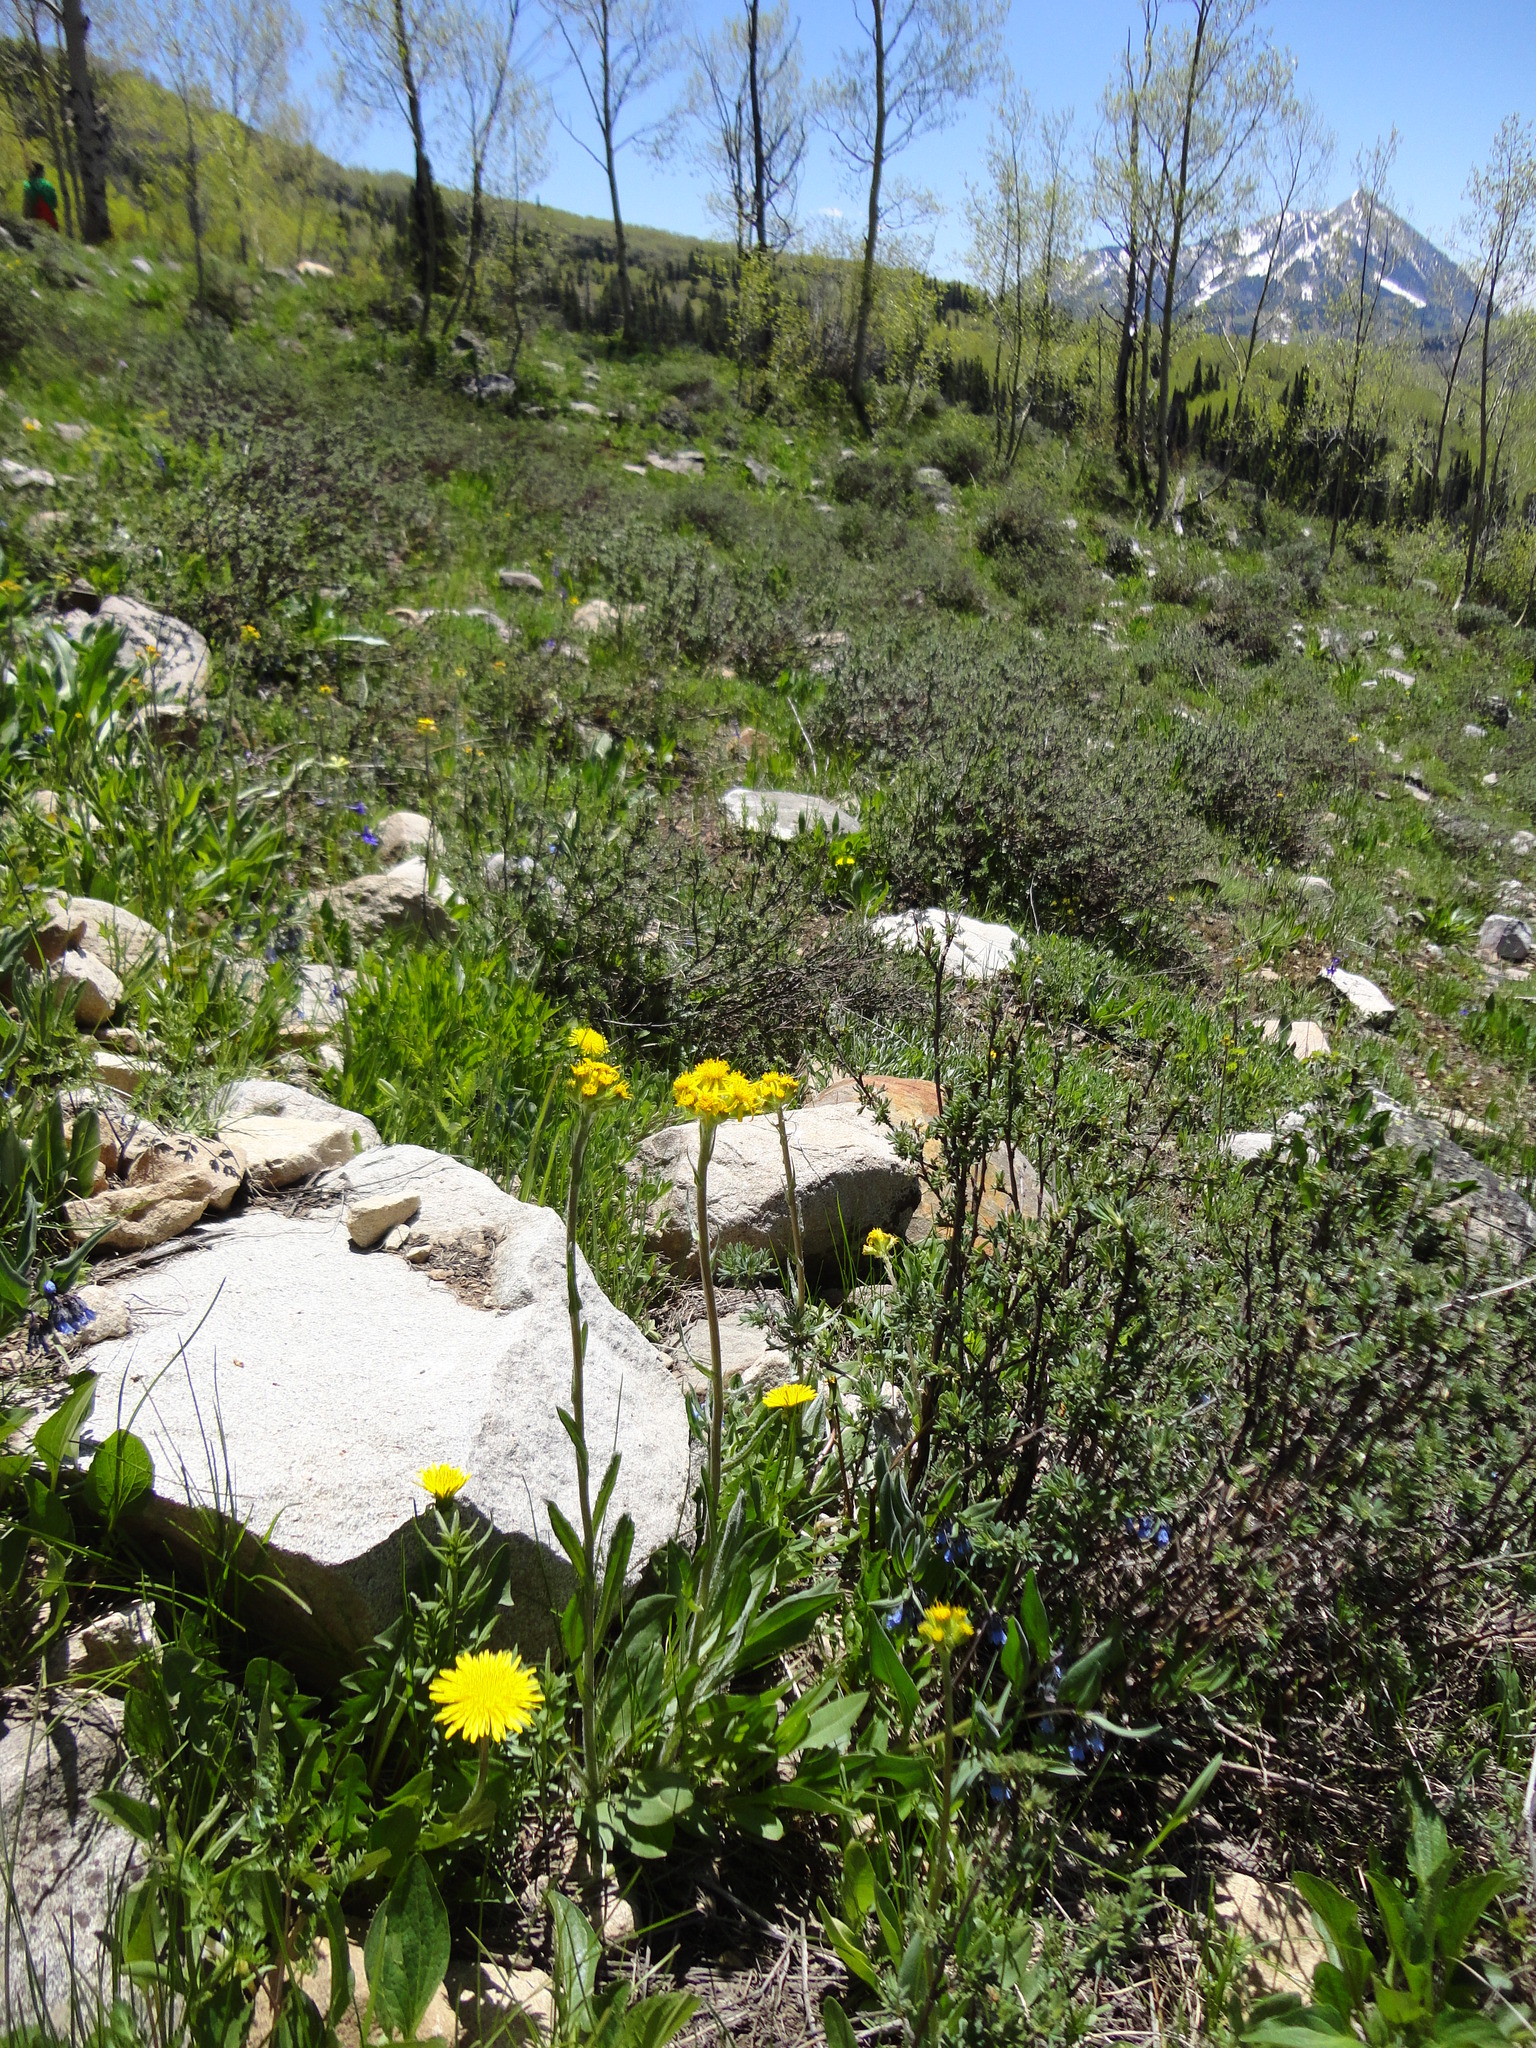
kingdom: Plantae
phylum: Tracheophyta
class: Magnoliopsida
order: Asterales
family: Asteraceae
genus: Senecio
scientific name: Senecio integerrimus
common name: Gaugeplant
